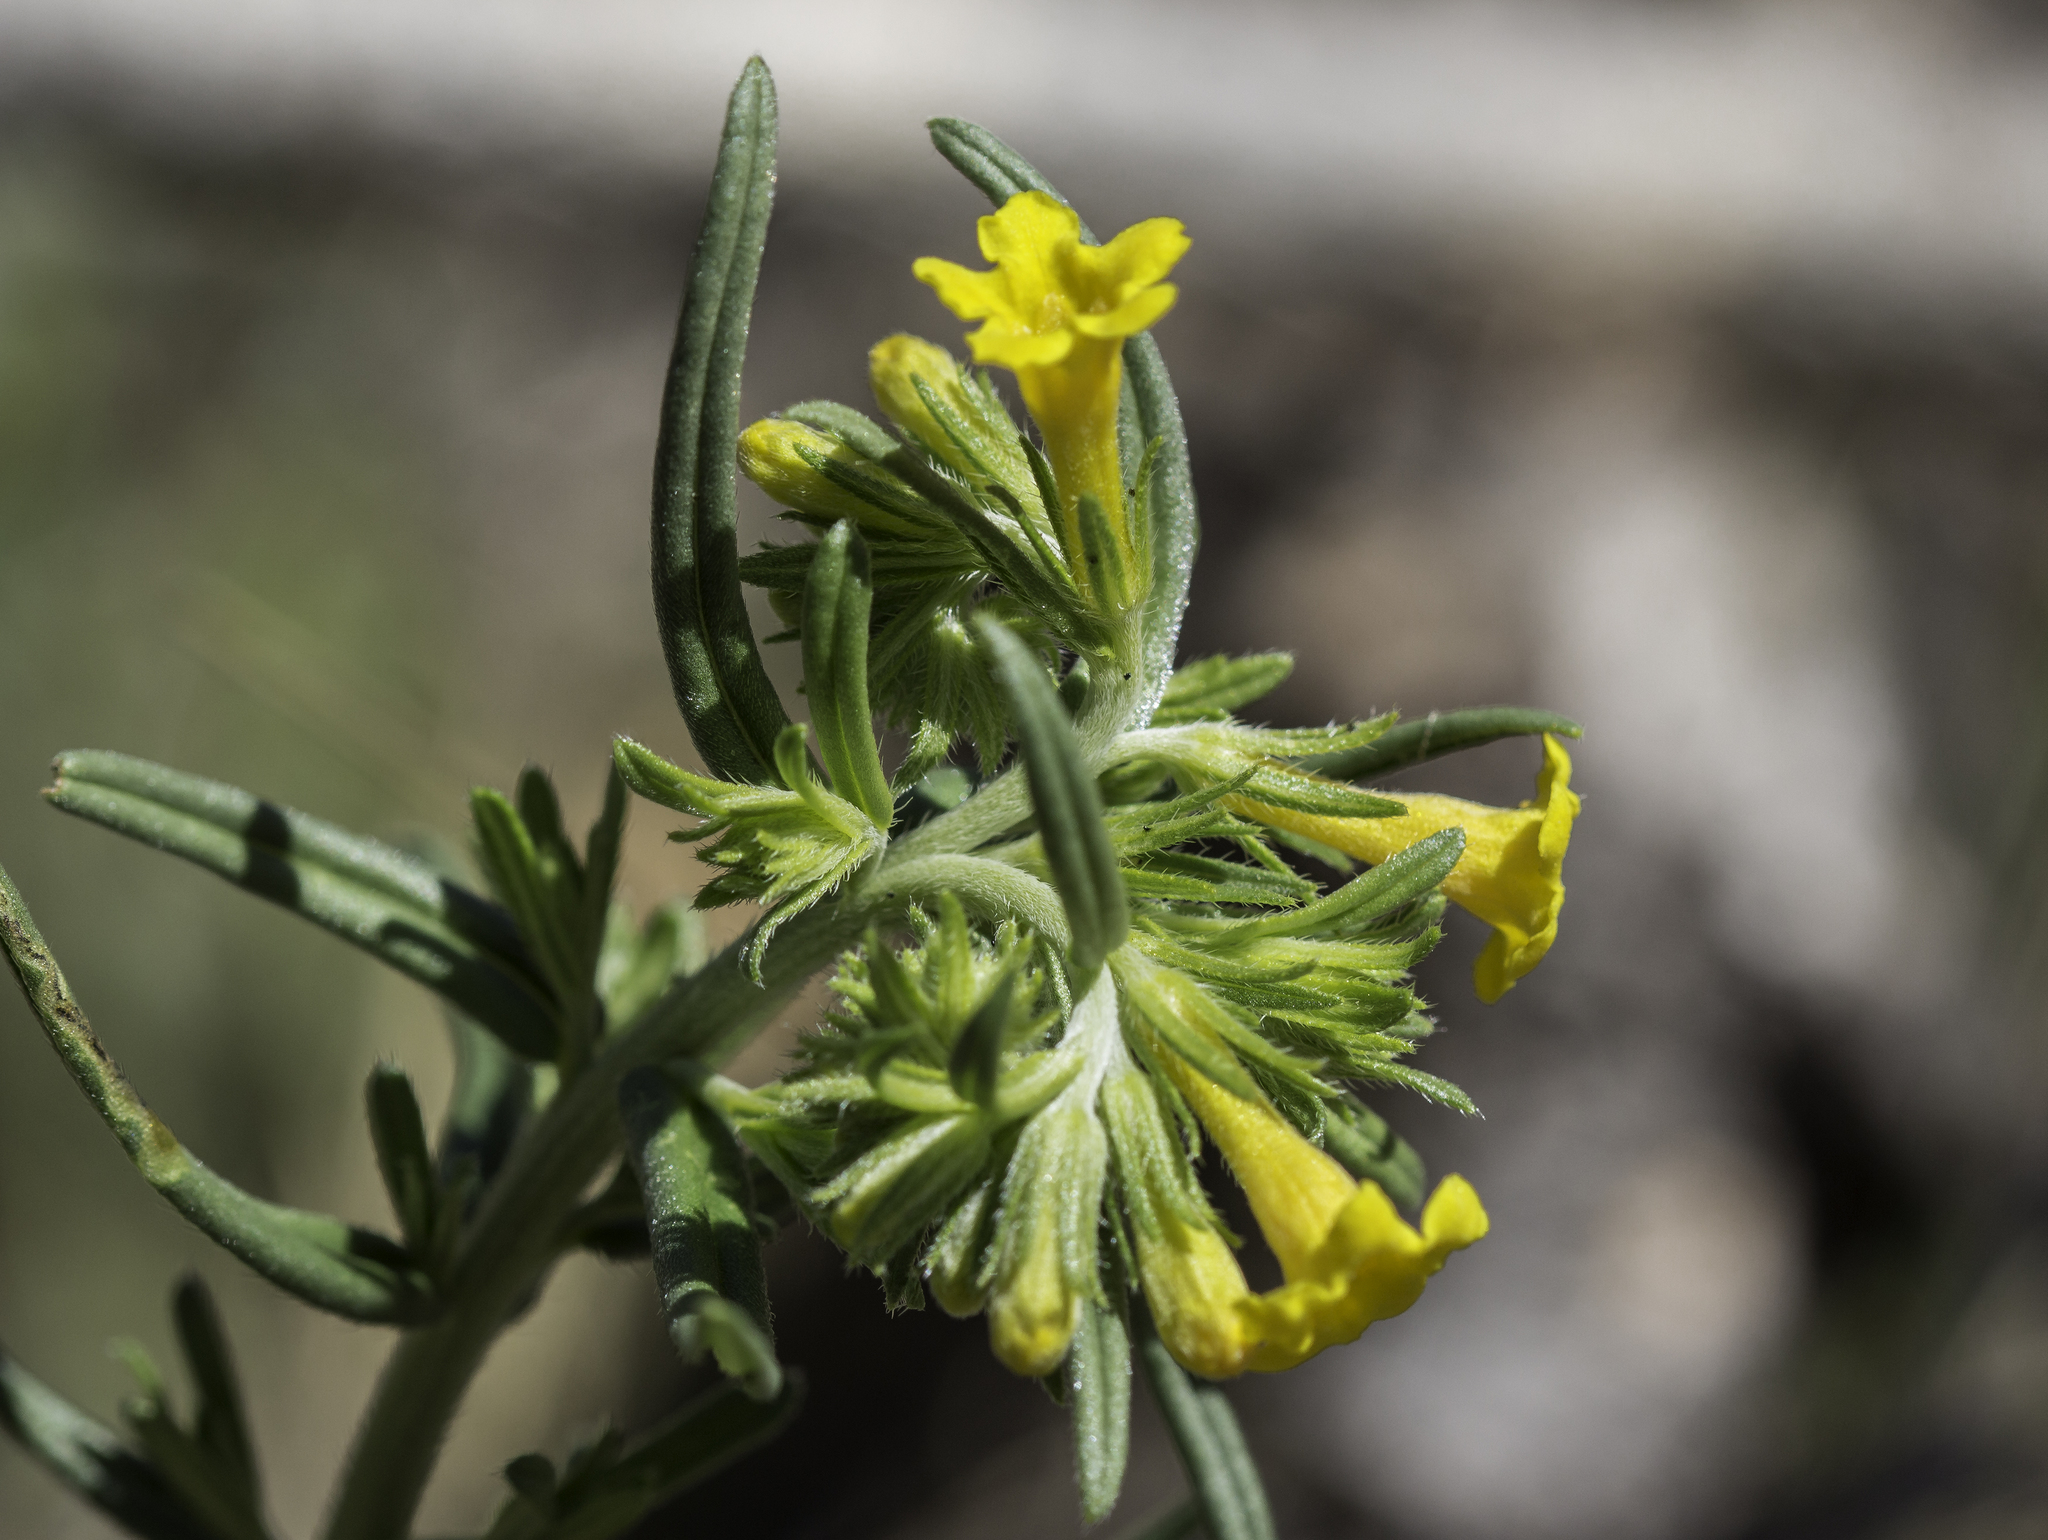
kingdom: Plantae
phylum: Tracheophyta
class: Magnoliopsida
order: Boraginales
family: Boraginaceae
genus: Lithospermum
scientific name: Lithospermum multiflorum
